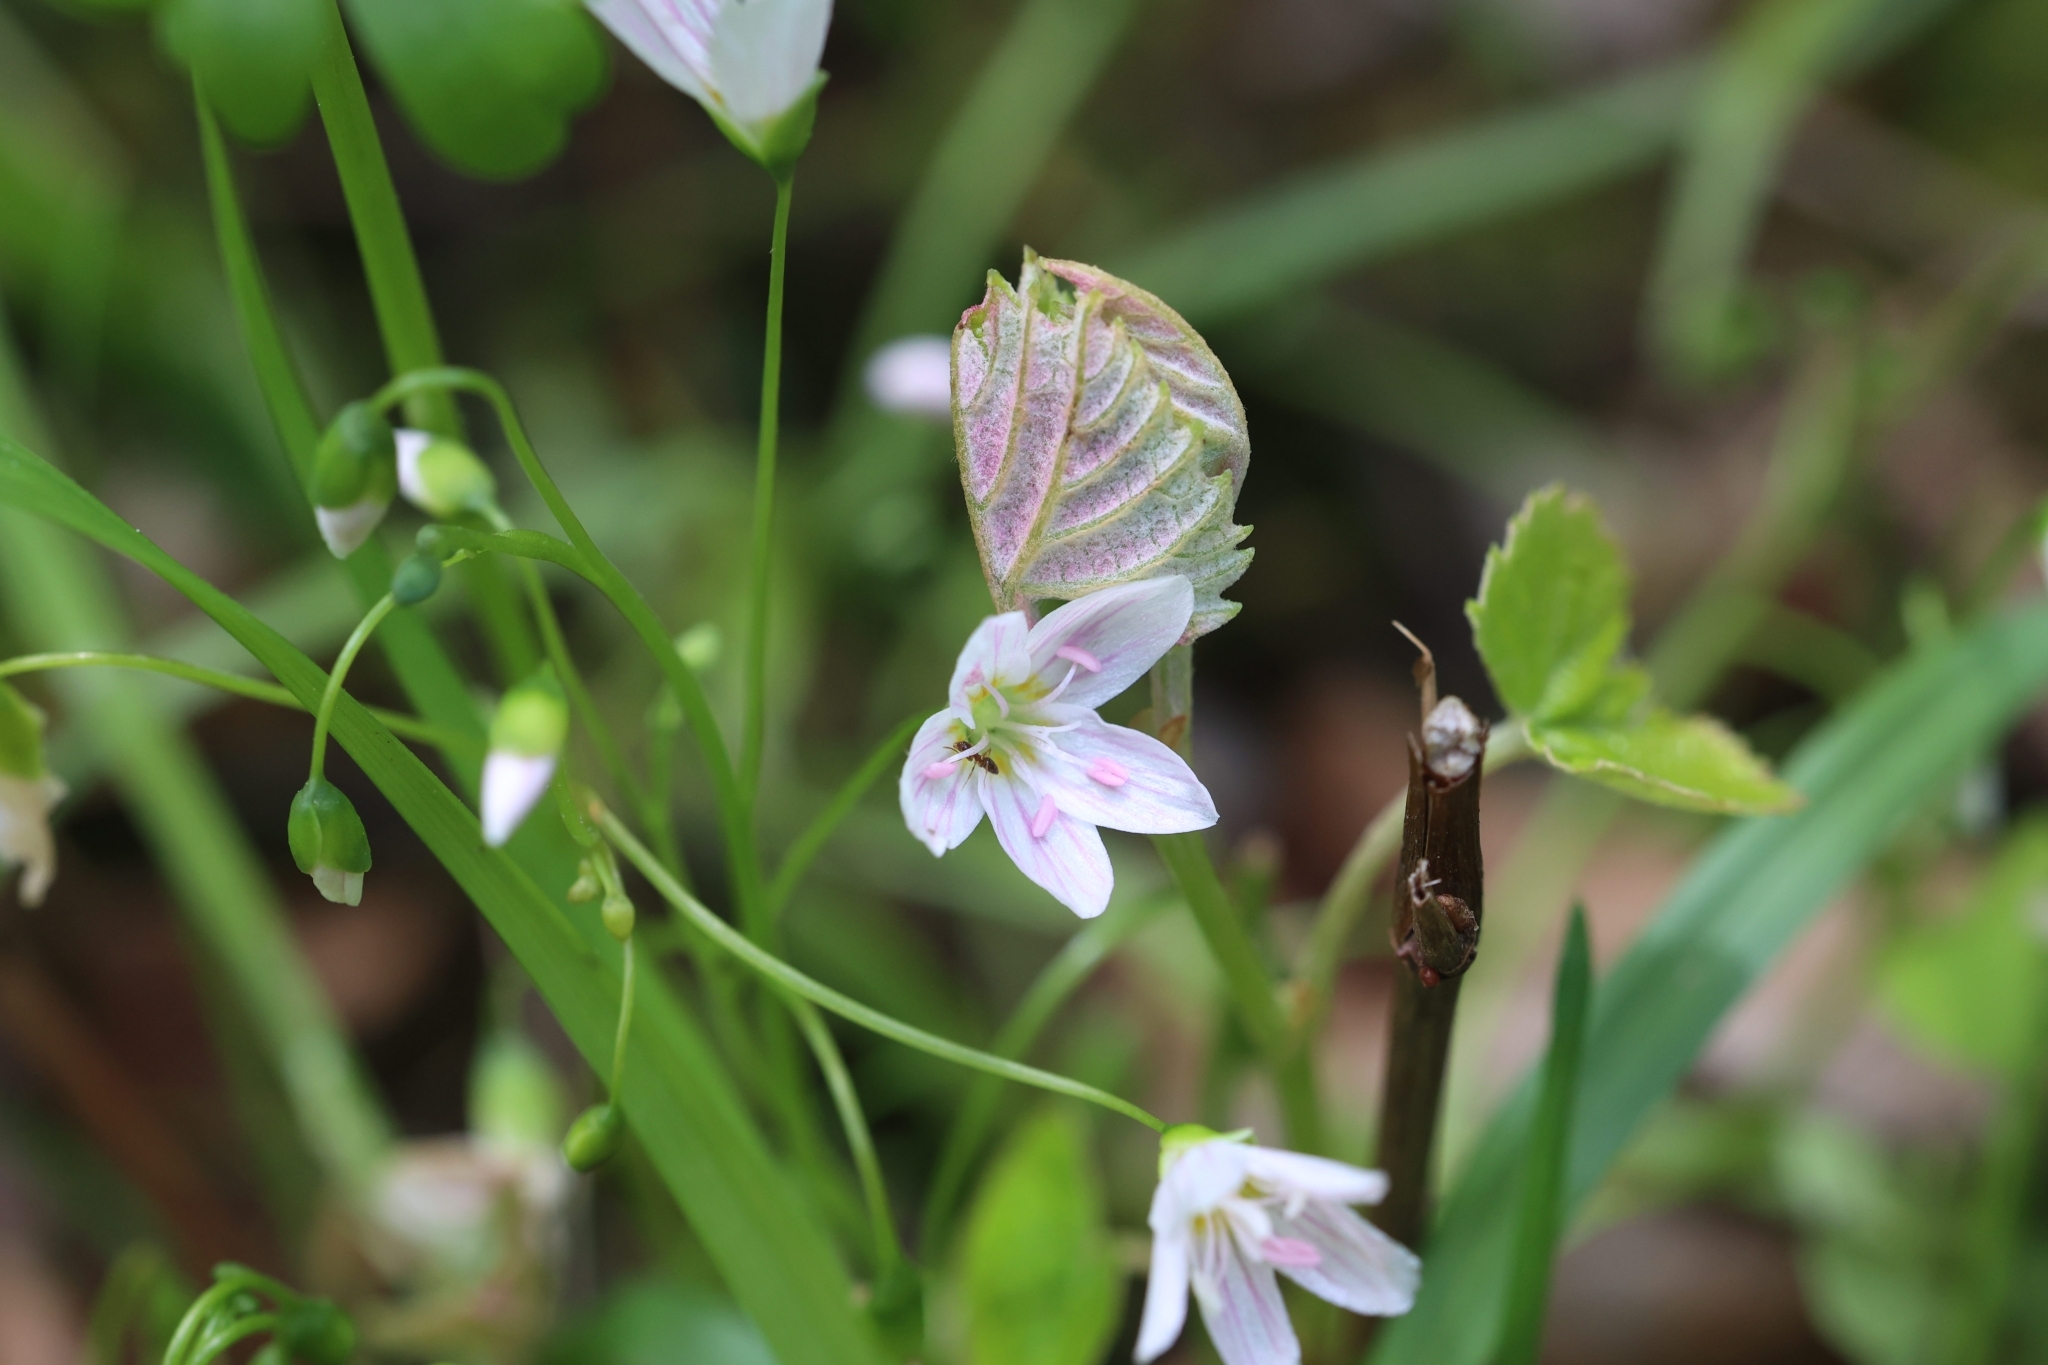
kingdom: Plantae
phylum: Tracheophyta
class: Magnoliopsida
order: Caryophyllales
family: Montiaceae
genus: Claytonia
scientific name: Claytonia virginica
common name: Virginia springbeauty
